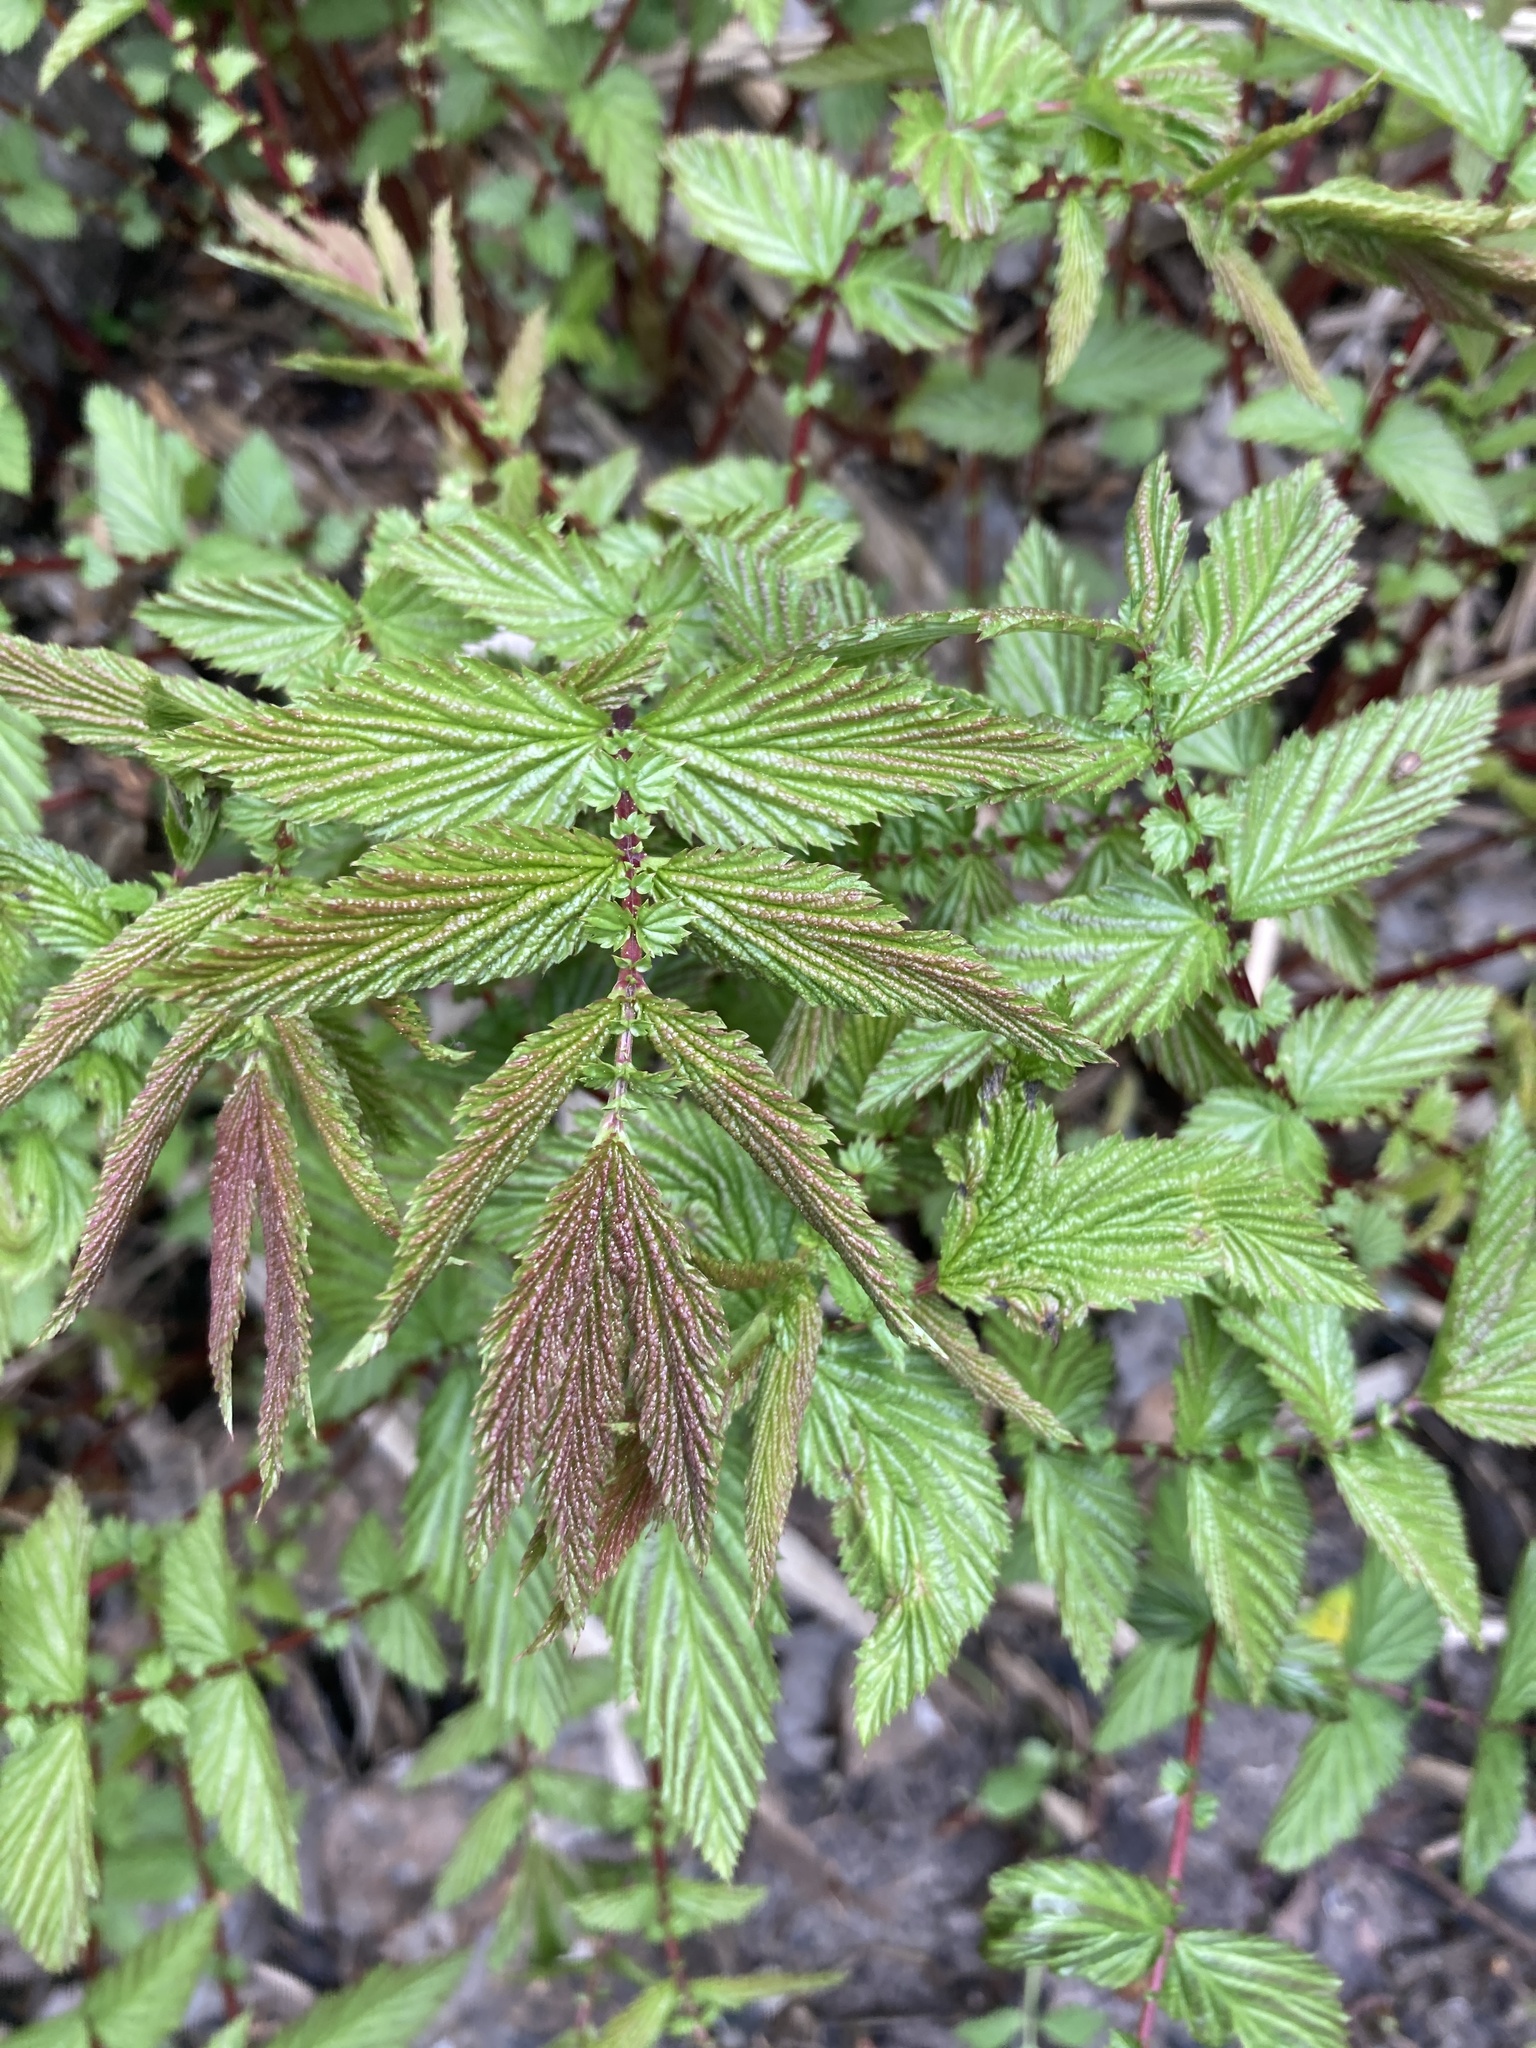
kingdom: Plantae
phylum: Tracheophyta
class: Magnoliopsida
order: Rosales
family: Rosaceae
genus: Filipendula
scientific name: Filipendula ulmaria
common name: Meadowsweet
